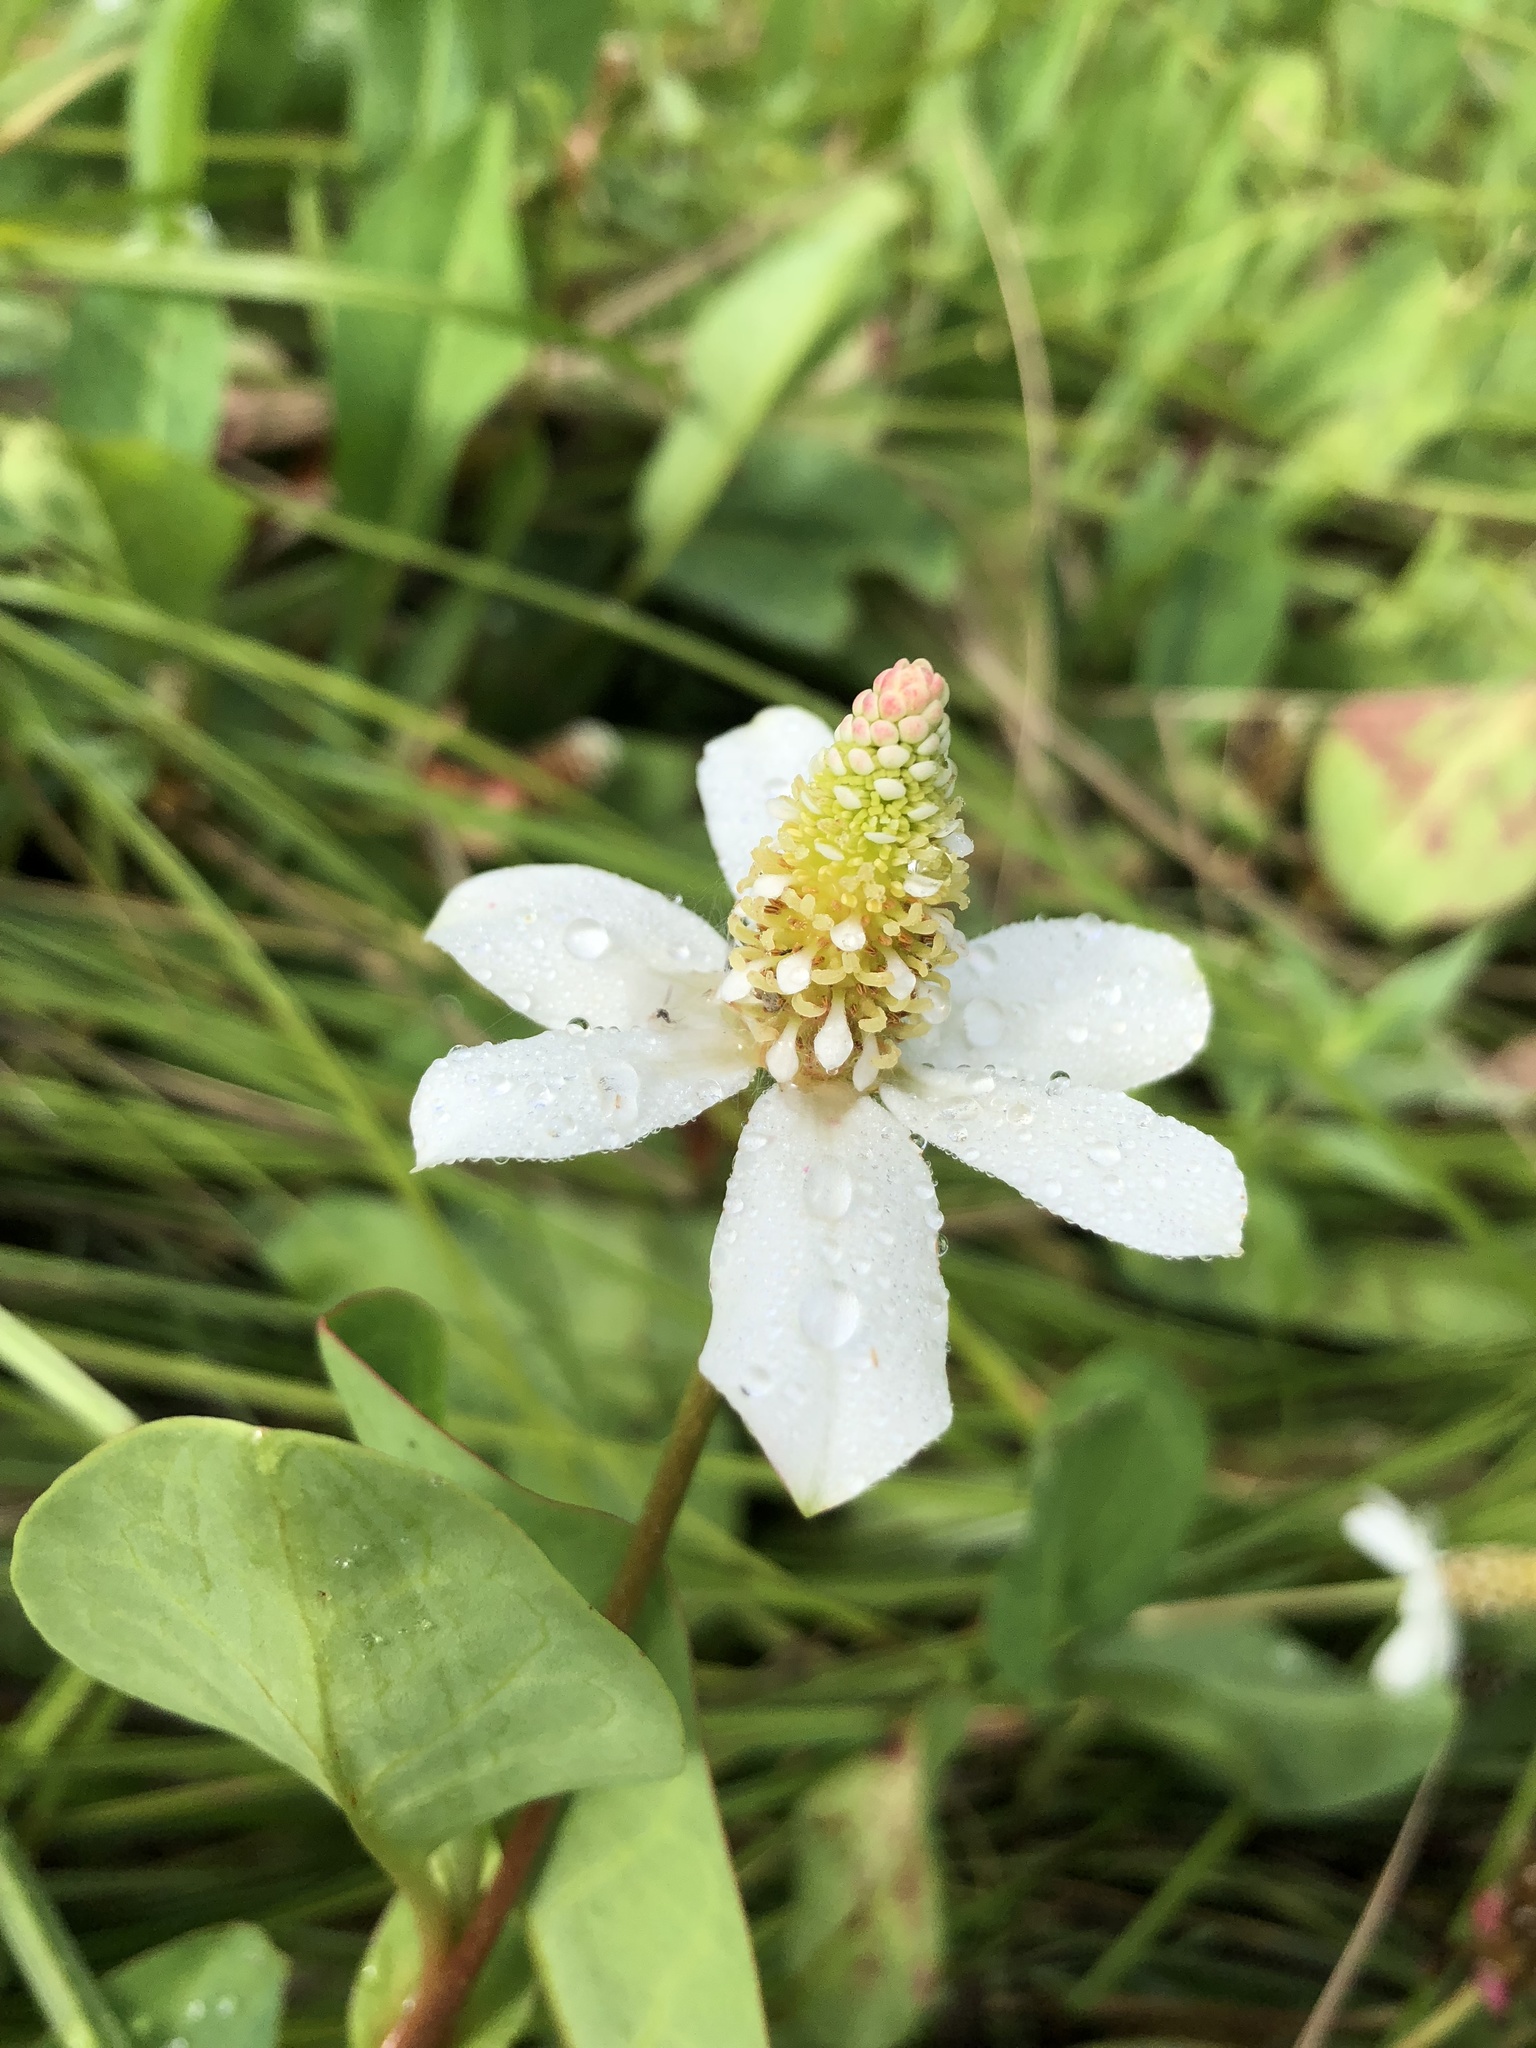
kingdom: Plantae
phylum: Tracheophyta
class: Magnoliopsida
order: Piperales
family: Saururaceae
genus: Anemopsis
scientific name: Anemopsis californica
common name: Apache-beads
